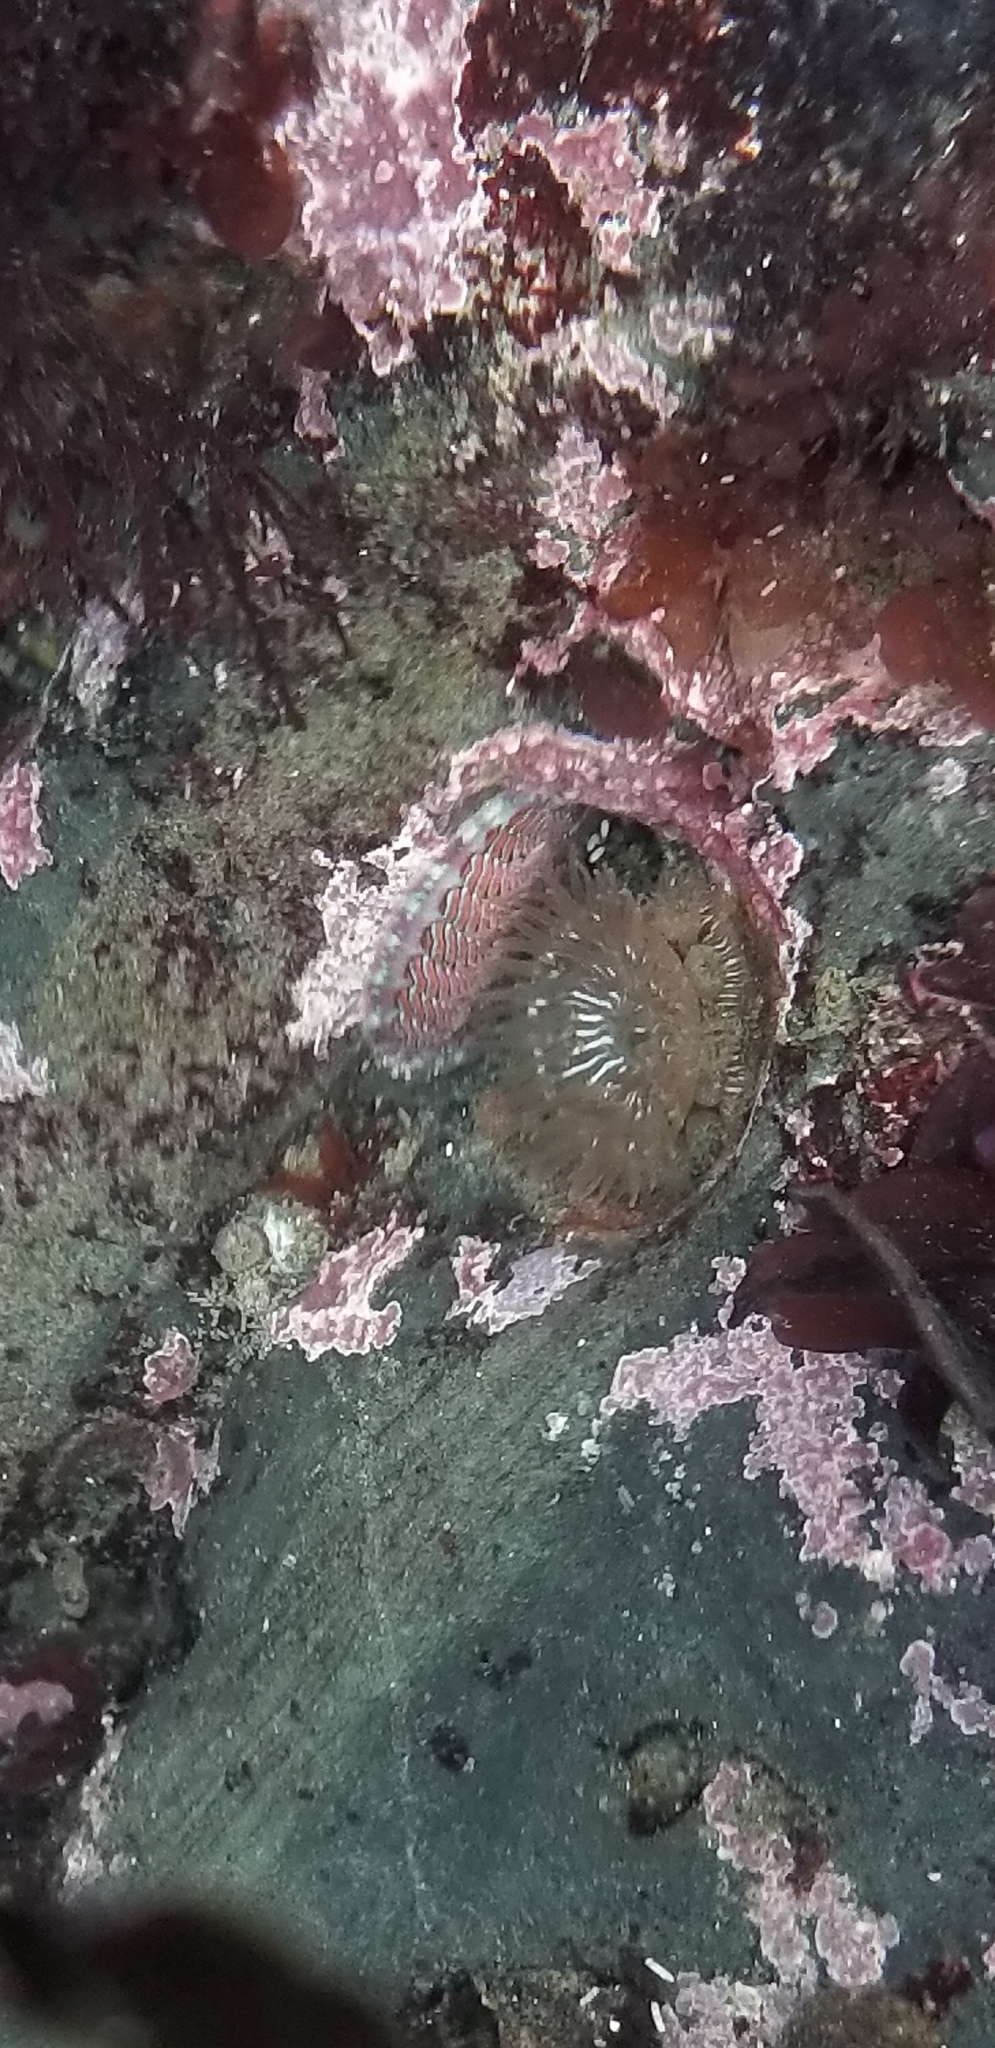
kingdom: Animalia
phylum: Cnidaria
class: Anthozoa
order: Actiniaria
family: Actiniidae
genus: Epiactis
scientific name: Epiactis prolifera
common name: Brooding anemone
